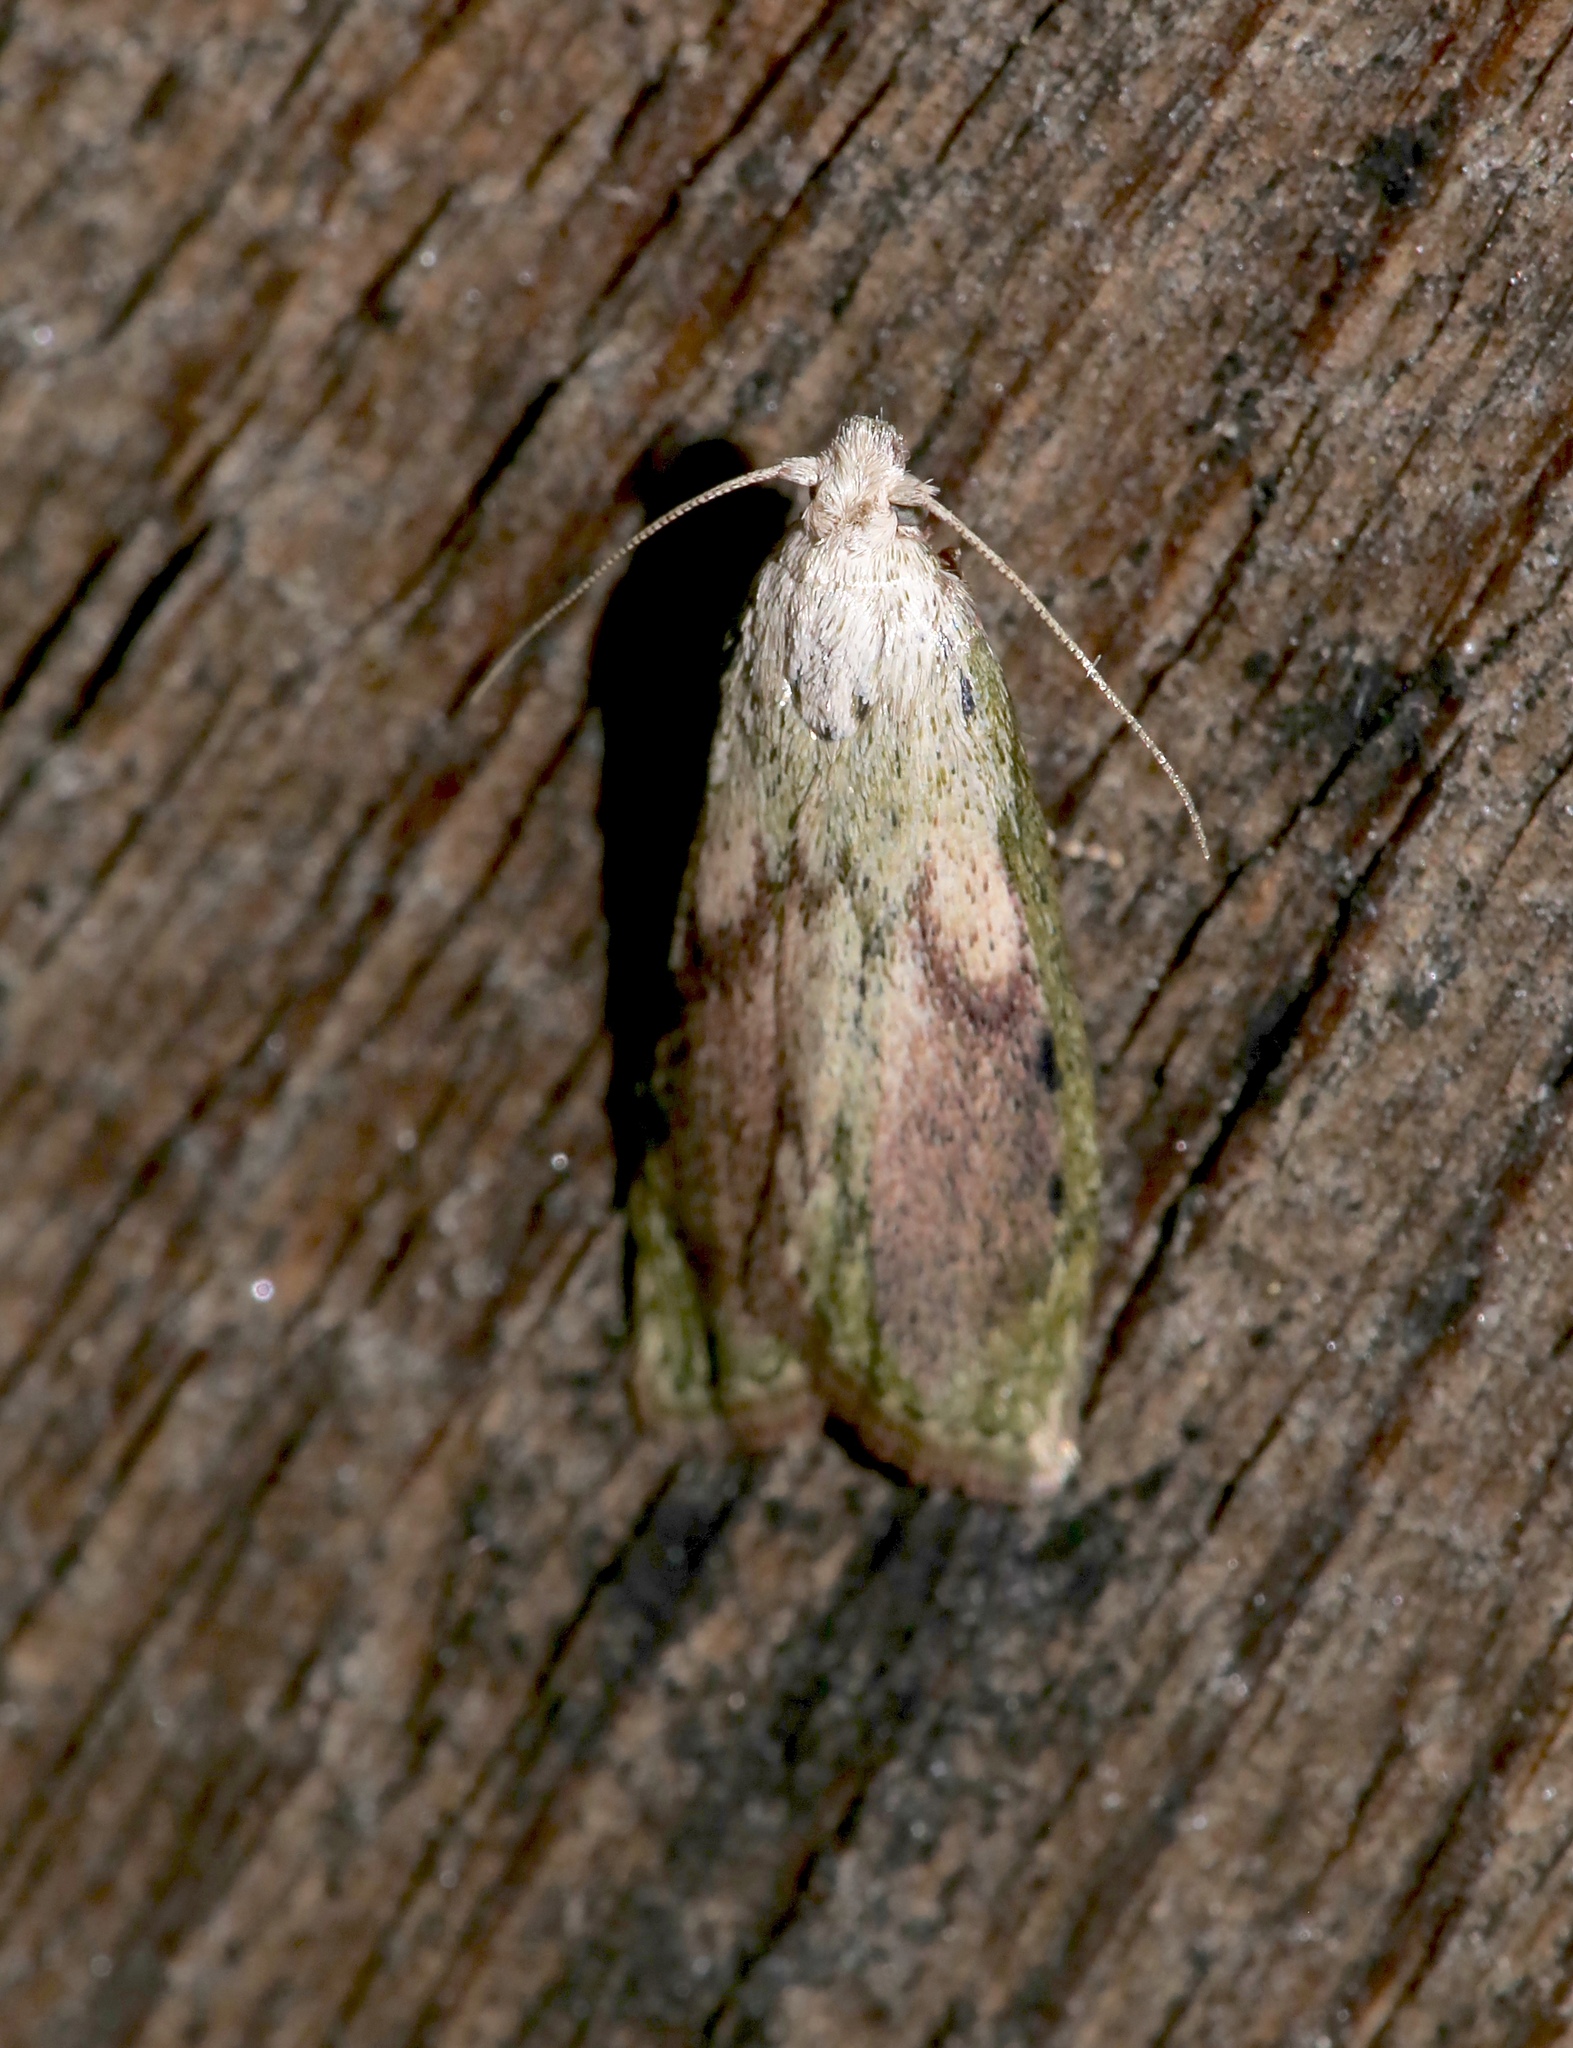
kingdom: Animalia
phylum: Arthropoda
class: Insecta
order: Lepidoptera
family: Pyralidae
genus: Aphomia
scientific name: Aphomia sociella
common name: Bee moth
